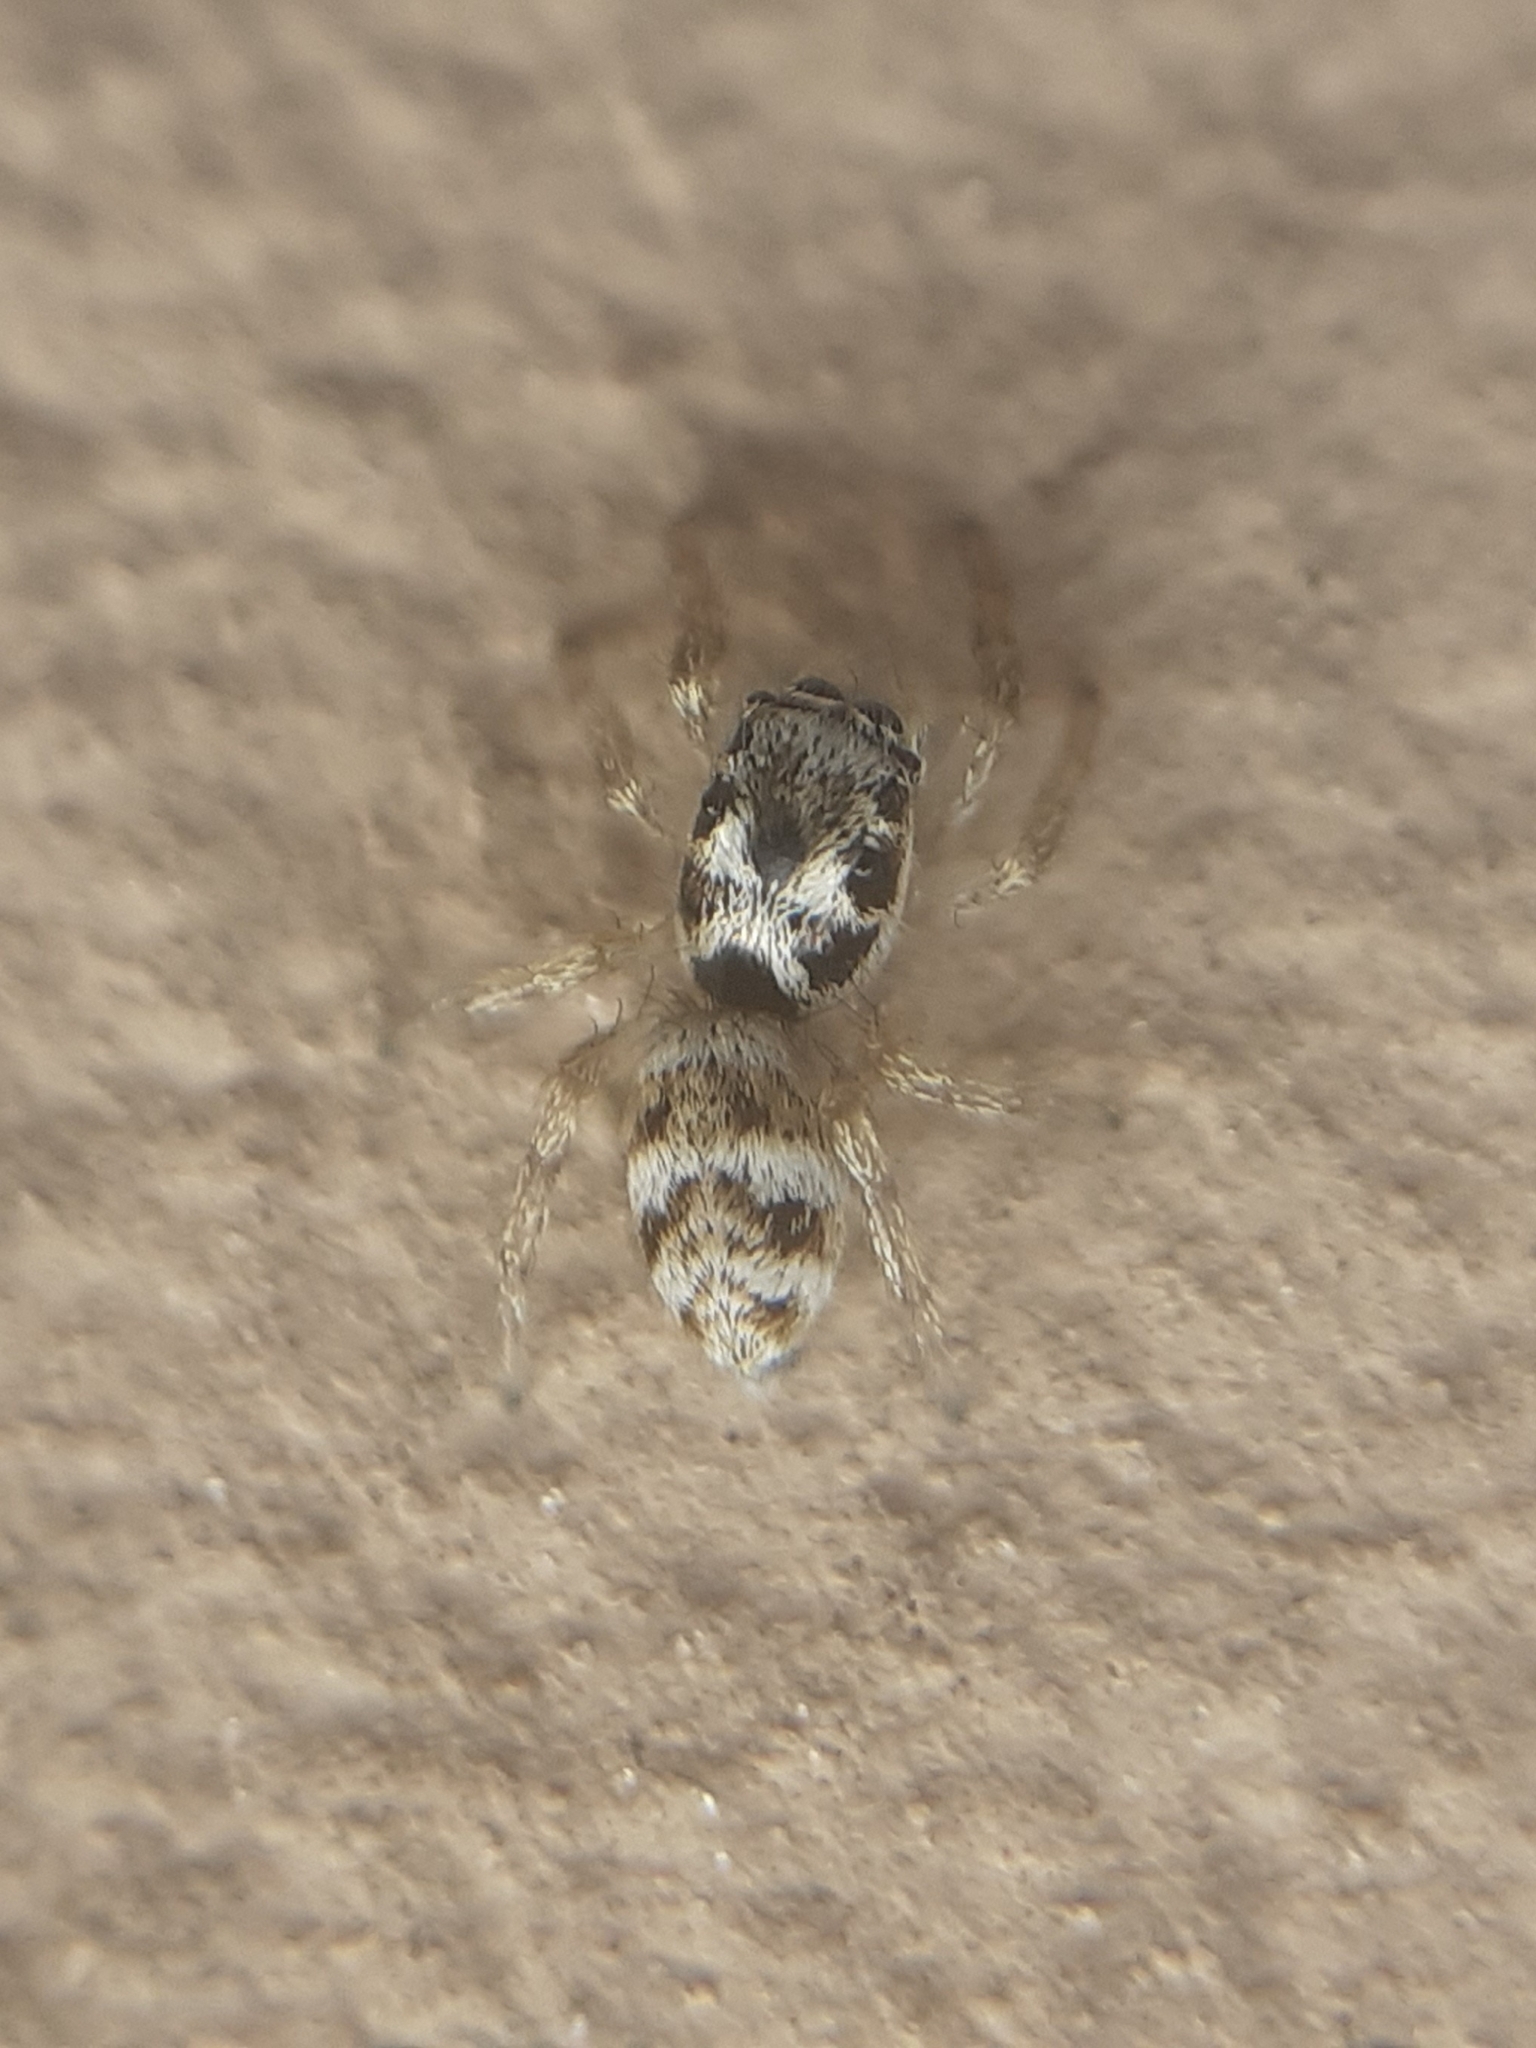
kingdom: Animalia
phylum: Arthropoda
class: Arachnida
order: Araneae
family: Salticidae
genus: Salticus
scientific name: Salticus scenicus
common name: Zebra jumper
